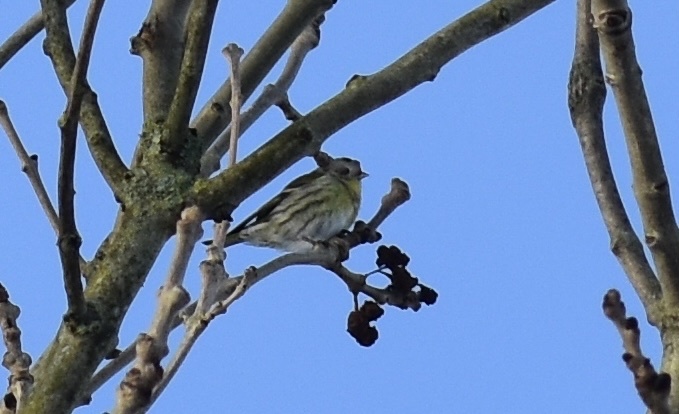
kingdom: Animalia
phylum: Chordata
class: Aves
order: Passeriformes
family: Fringillidae
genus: Spinus
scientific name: Spinus spinus
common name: Eurasian siskin
